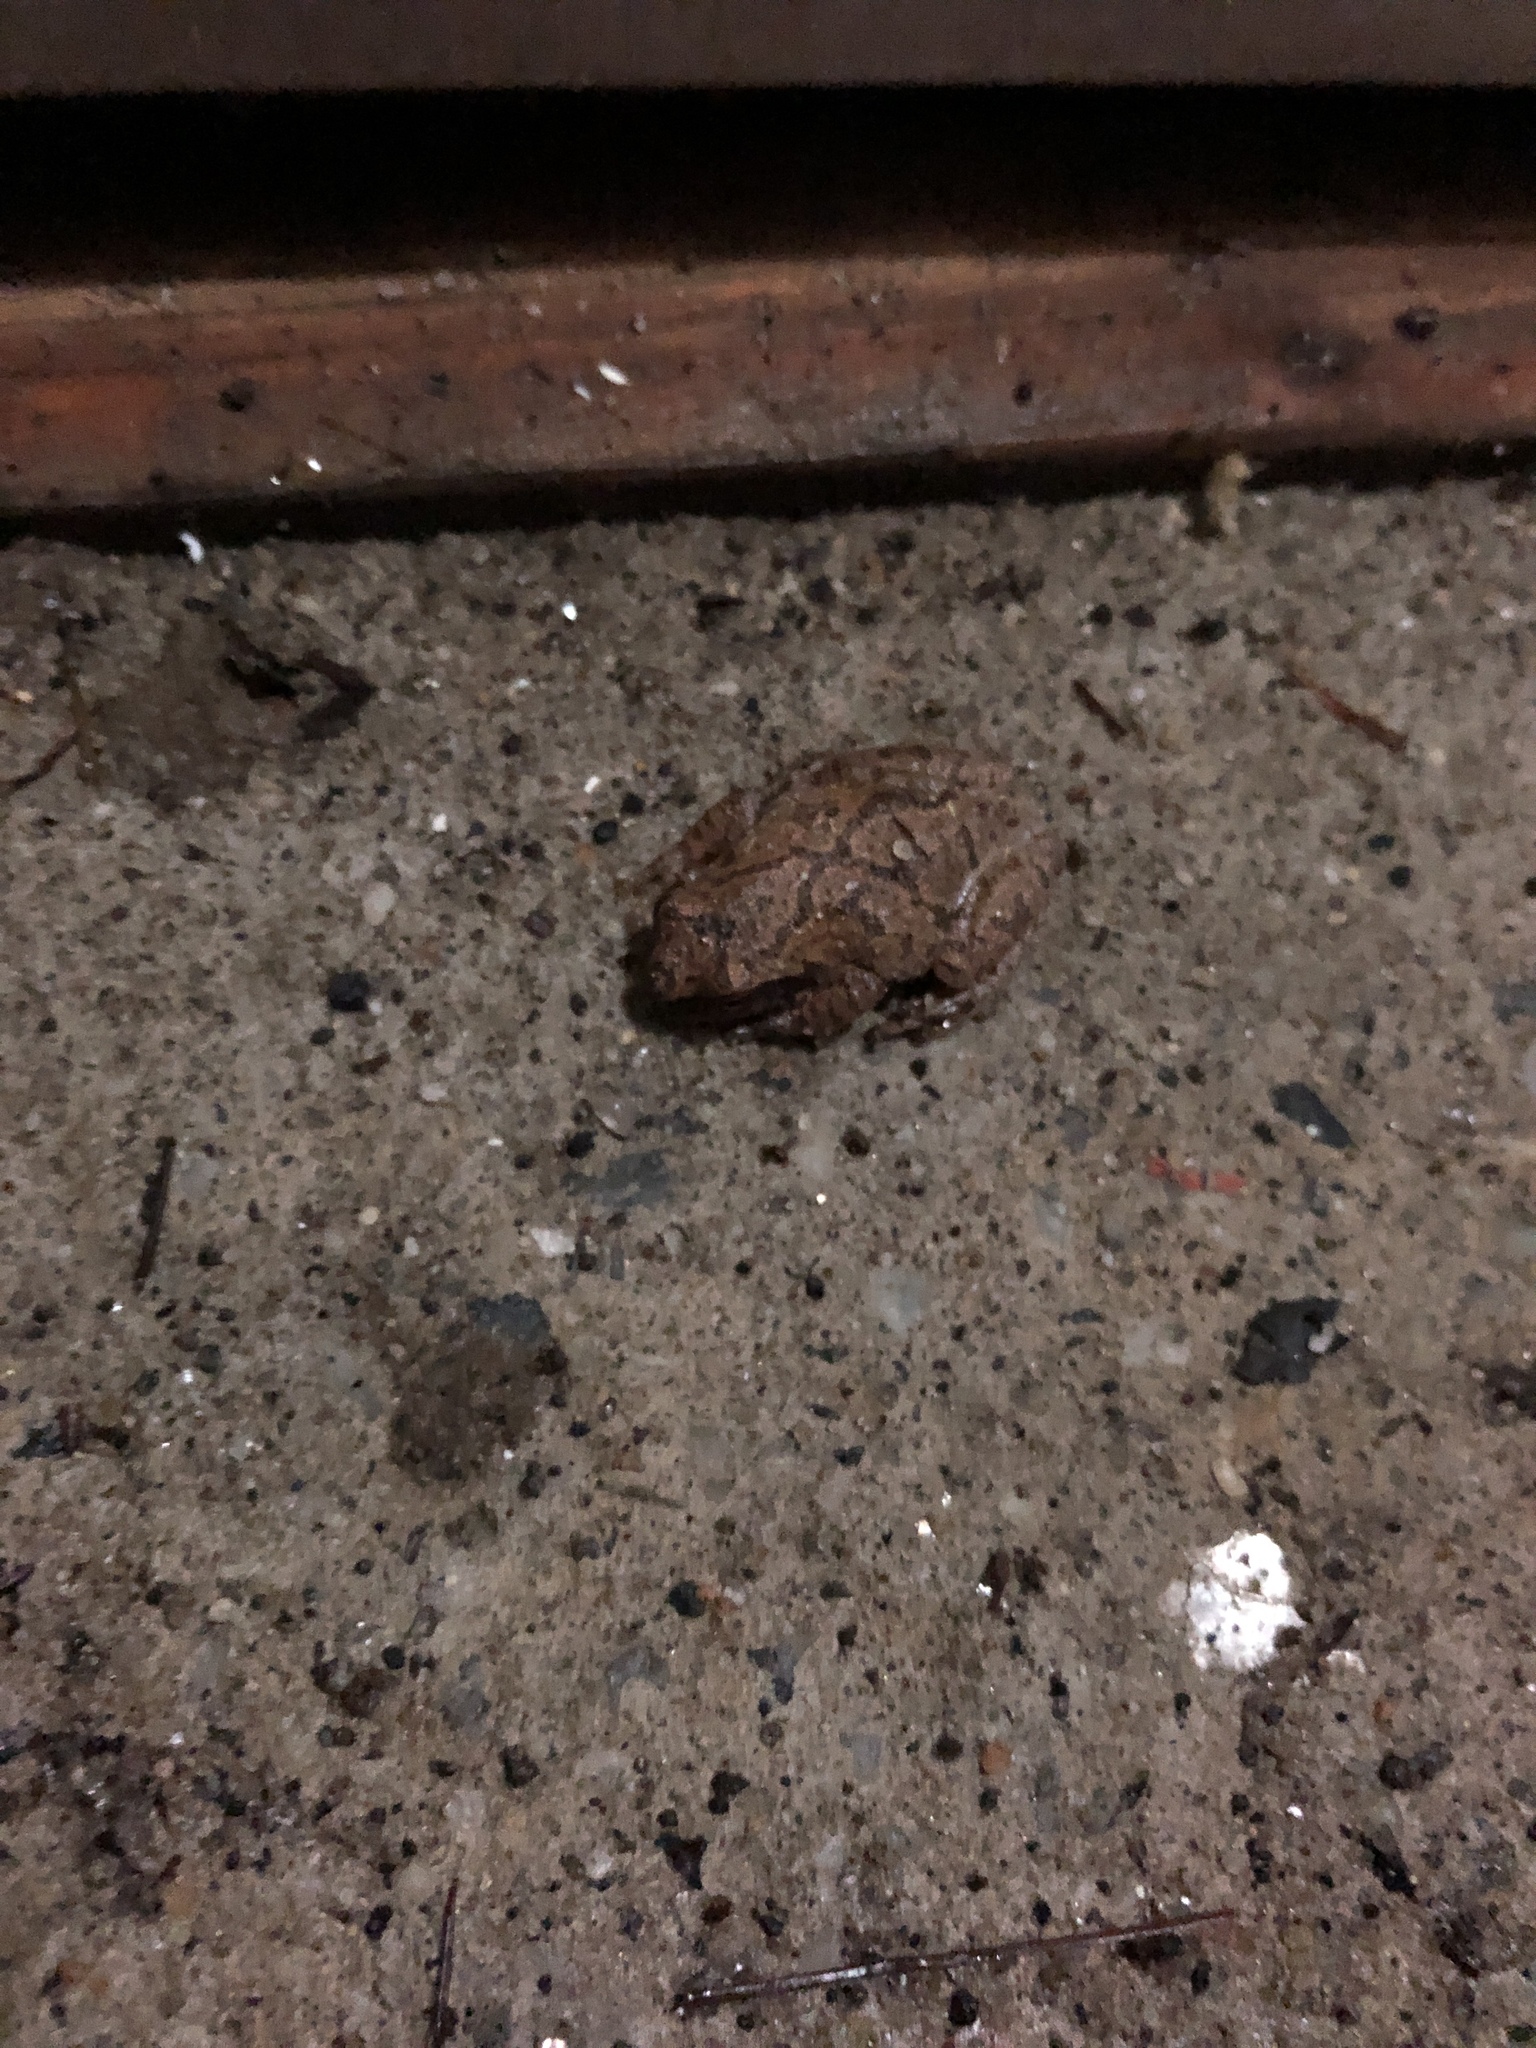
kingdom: Animalia
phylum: Chordata
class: Amphibia
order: Anura
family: Hylidae
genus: Pseudacris
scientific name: Pseudacris crucifer
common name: Spring peeper
